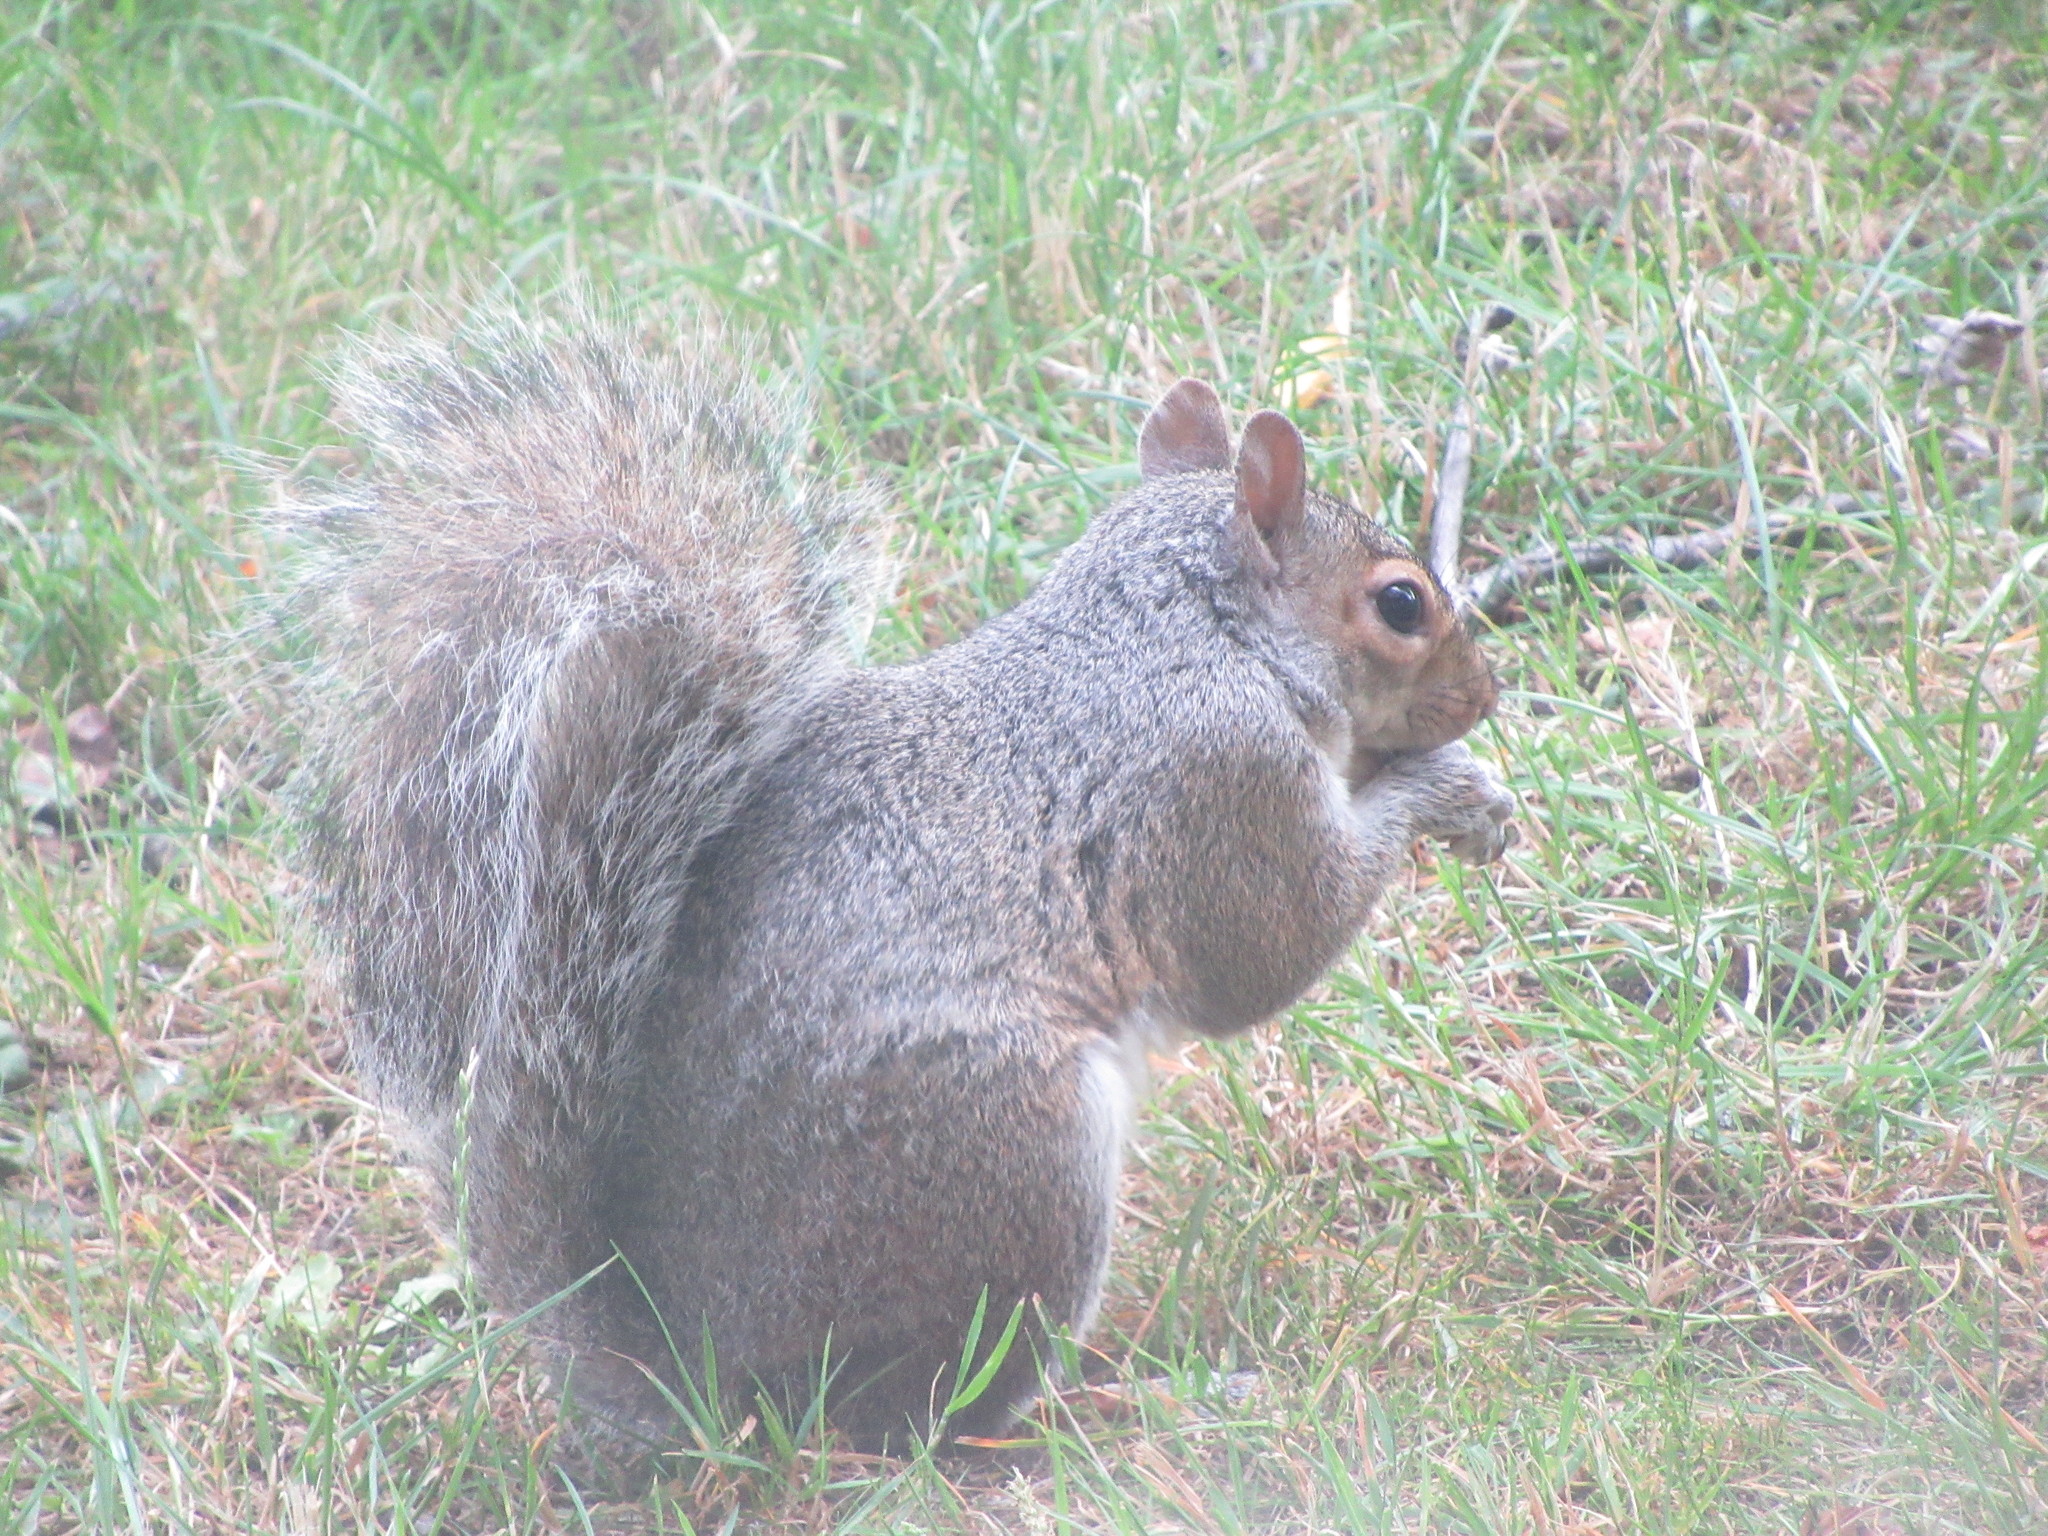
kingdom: Animalia
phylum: Chordata
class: Mammalia
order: Rodentia
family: Sciuridae
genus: Sciurus
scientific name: Sciurus carolinensis
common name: Eastern gray squirrel
